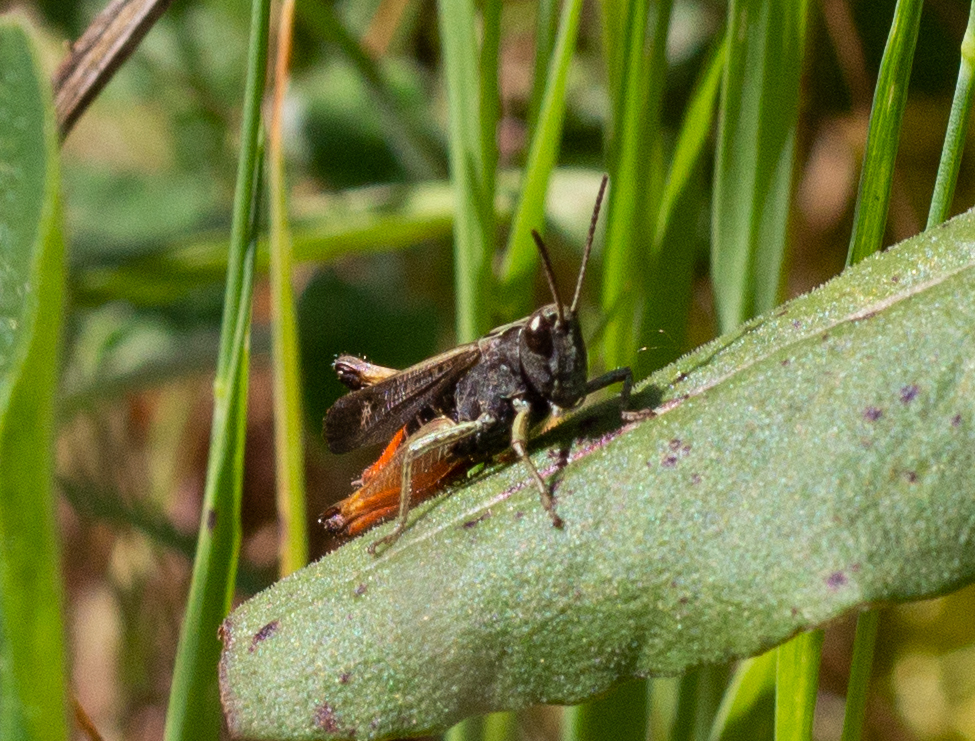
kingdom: Animalia
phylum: Arthropoda
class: Insecta
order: Orthoptera
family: Acrididae
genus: Omocestus
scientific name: Omocestus rufipes
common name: Woodland grasshopper
